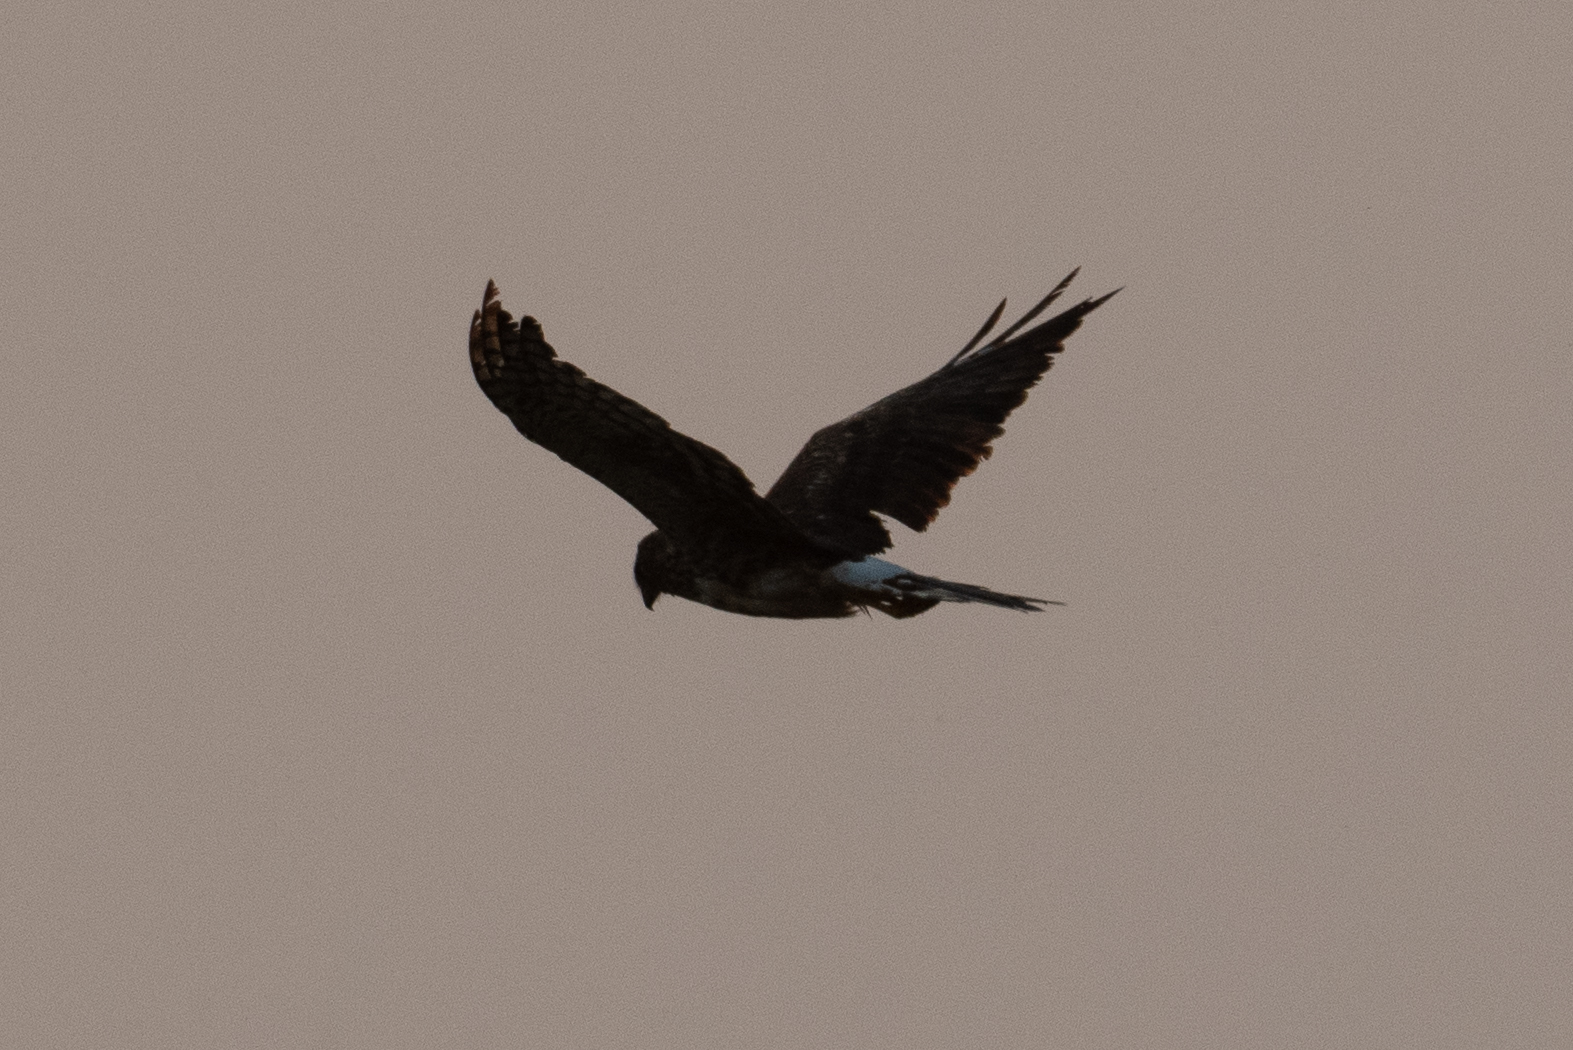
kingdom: Animalia
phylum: Chordata
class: Aves
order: Accipitriformes
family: Accipitridae
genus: Circus
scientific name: Circus cyaneus
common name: Hen harrier
